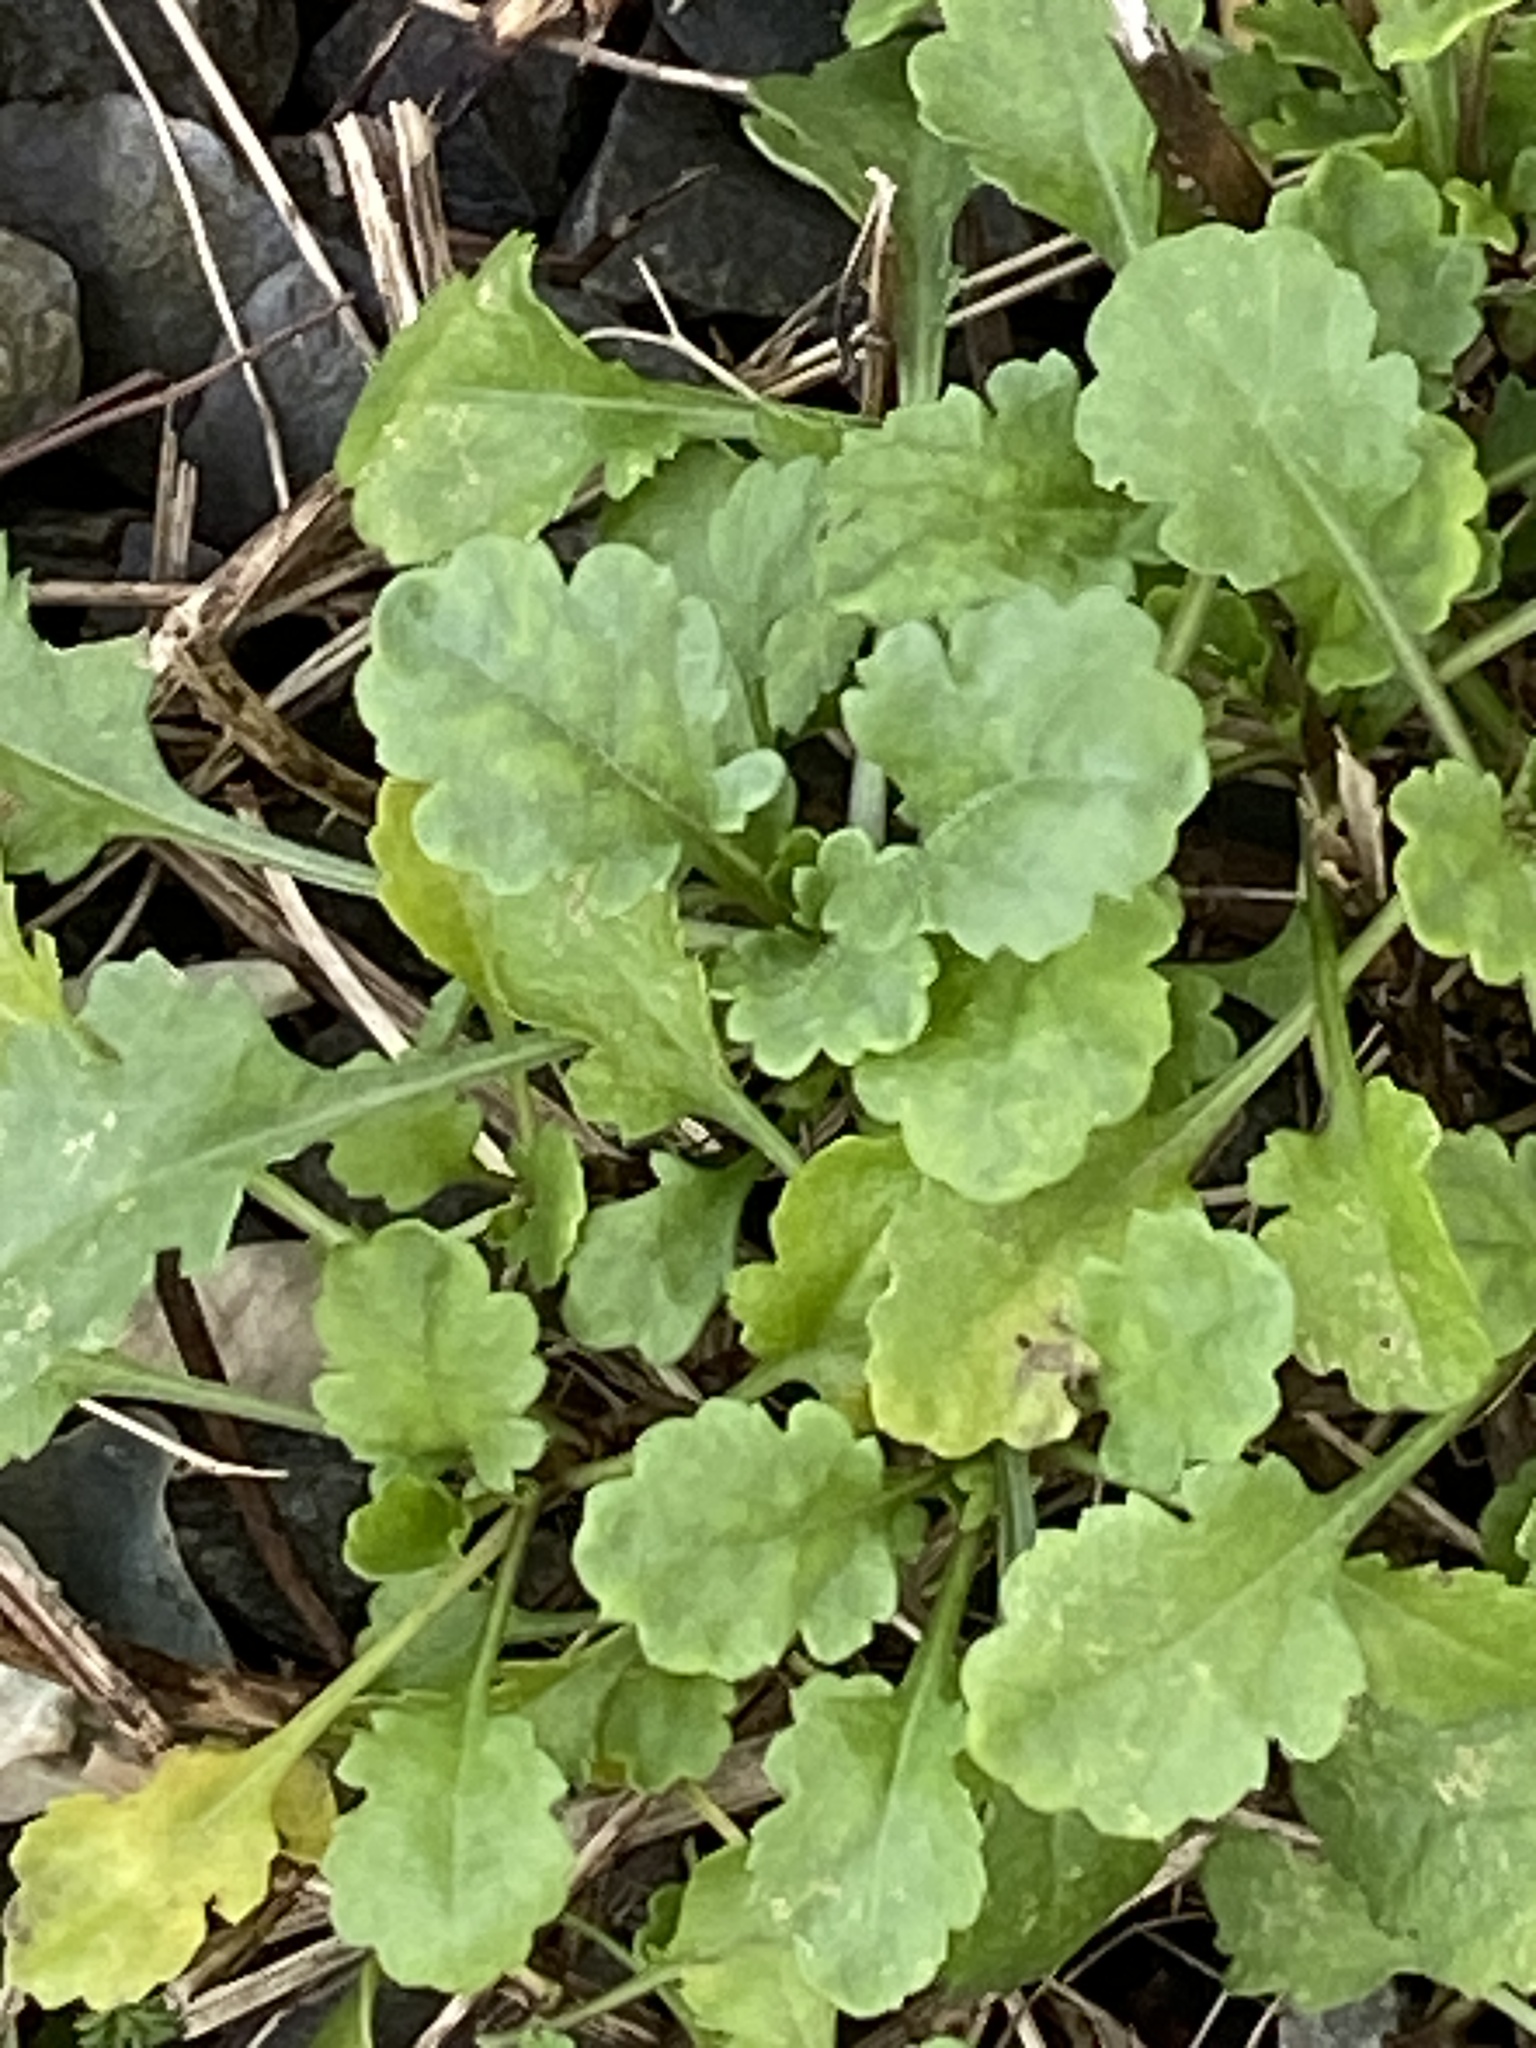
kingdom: Plantae
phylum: Tracheophyta
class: Magnoliopsida
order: Asterales
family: Asteraceae
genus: Leucanthemum
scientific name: Leucanthemum vulgare
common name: Oxeye daisy
